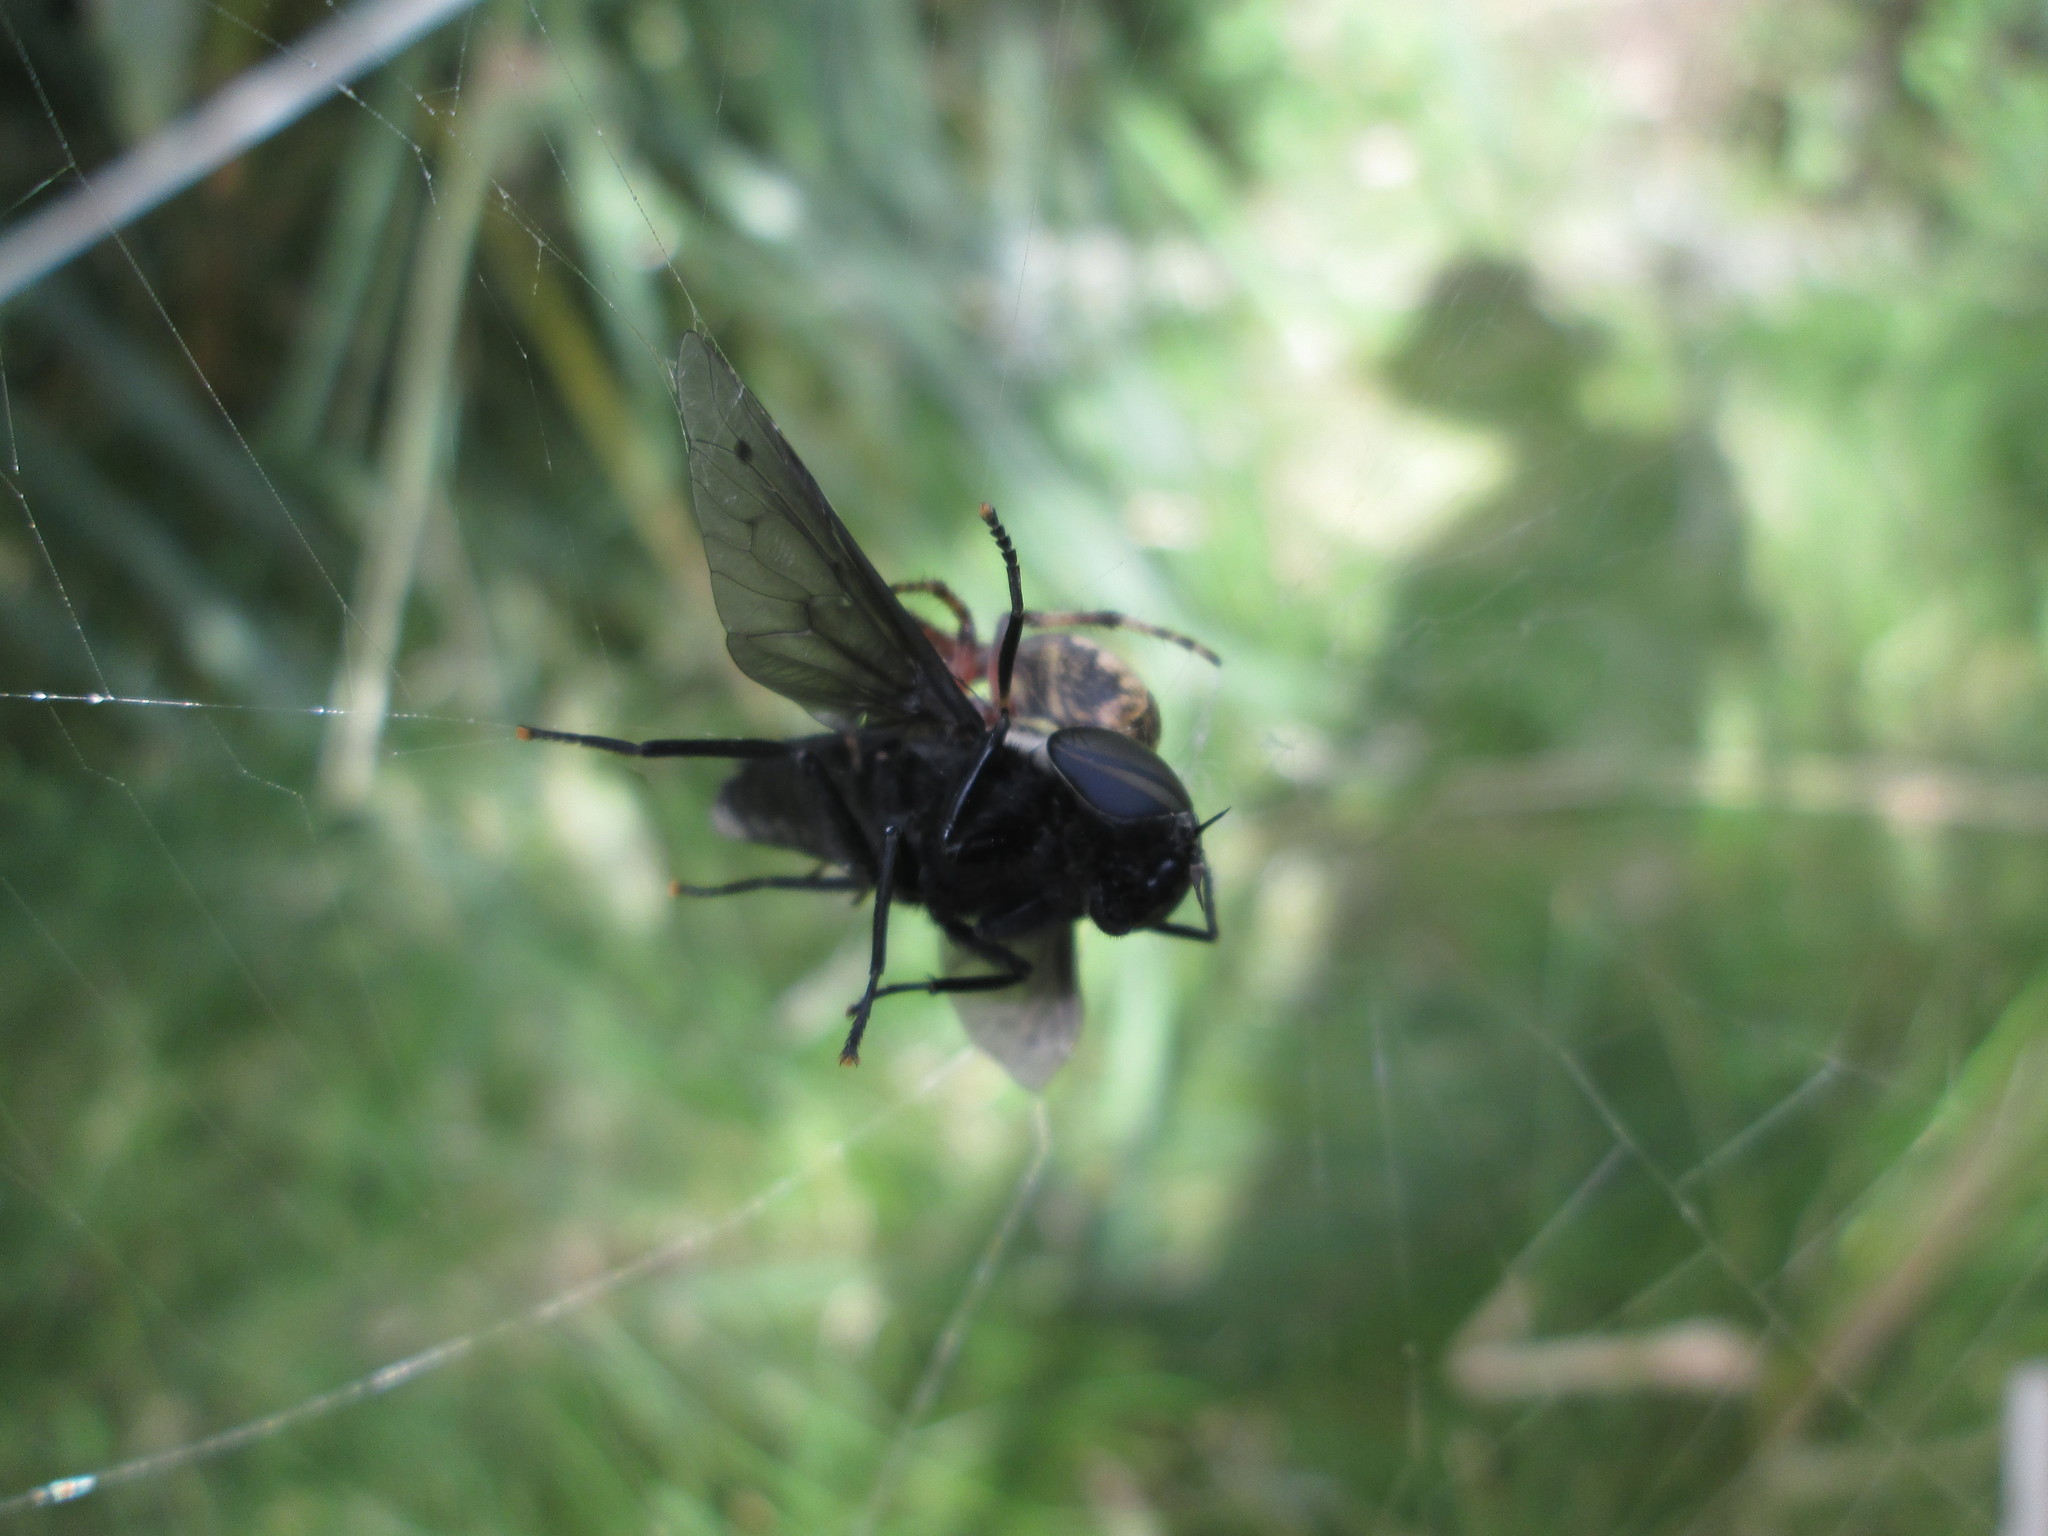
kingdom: Animalia
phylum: Arthropoda
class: Insecta
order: Diptera
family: Tabanidae
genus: Tabanus
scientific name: Tabanus punctifer
